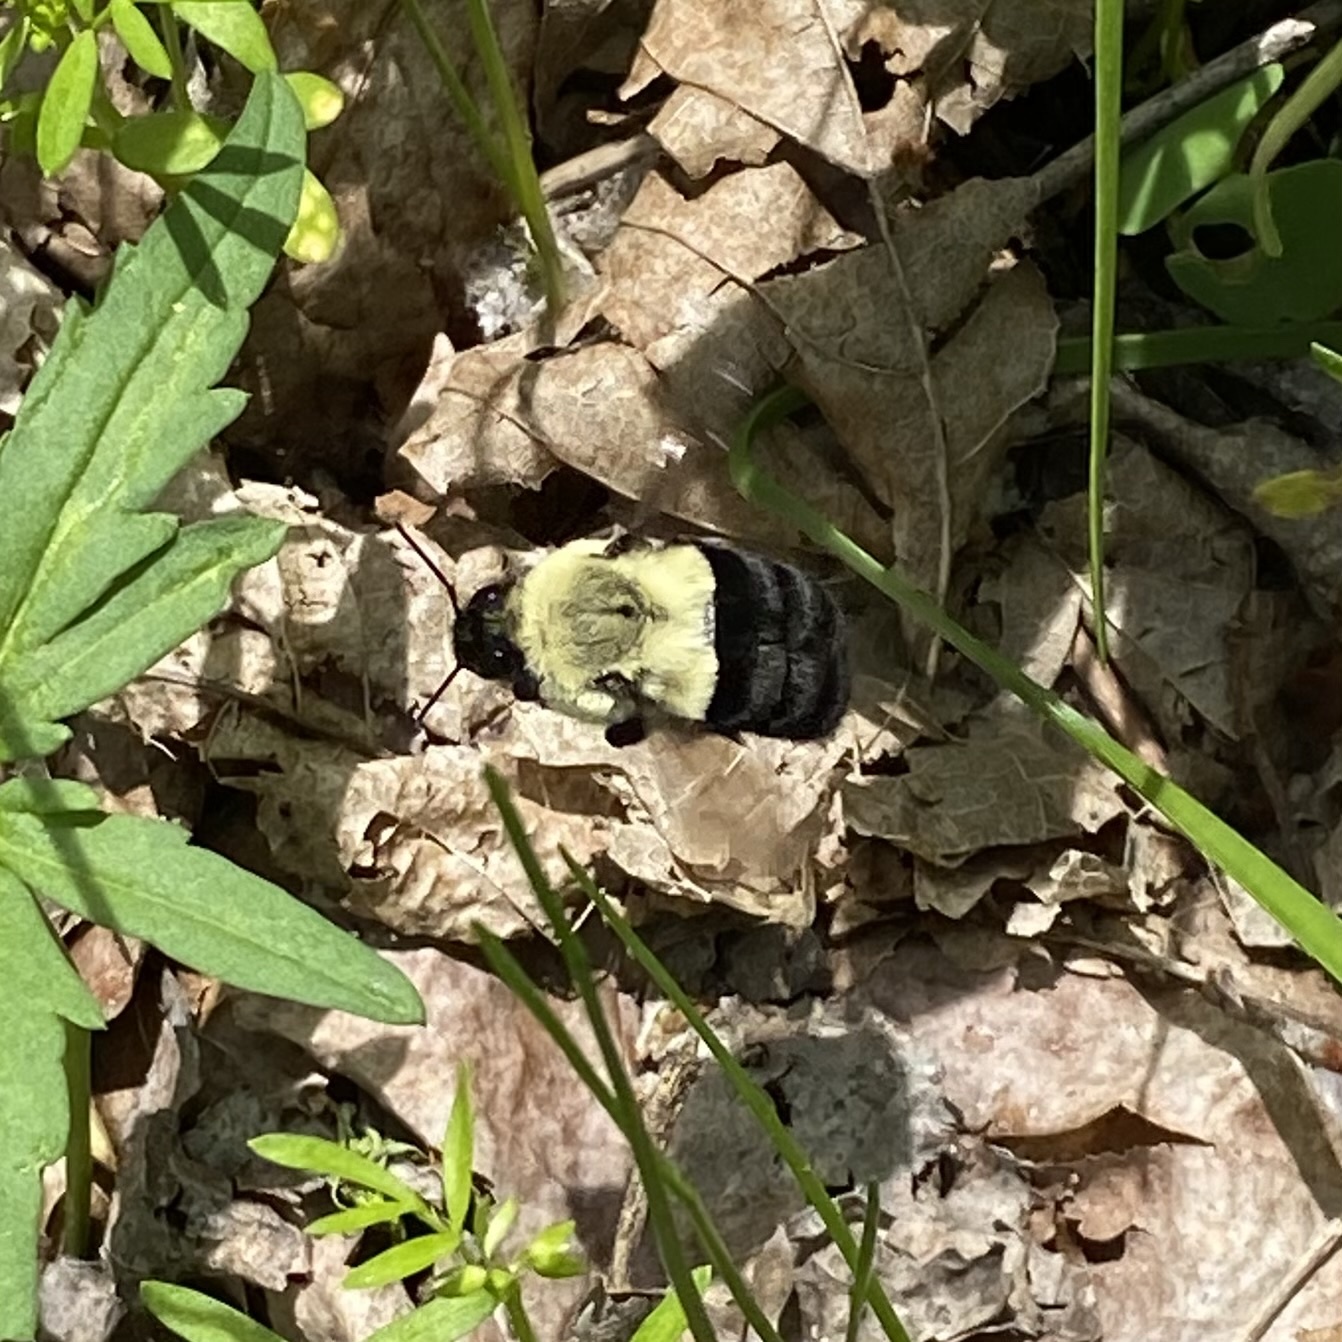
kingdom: Animalia
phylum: Arthropoda
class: Insecta
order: Hymenoptera
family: Apidae
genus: Bombus
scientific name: Bombus impatiens
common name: Common eastern bumble bee
